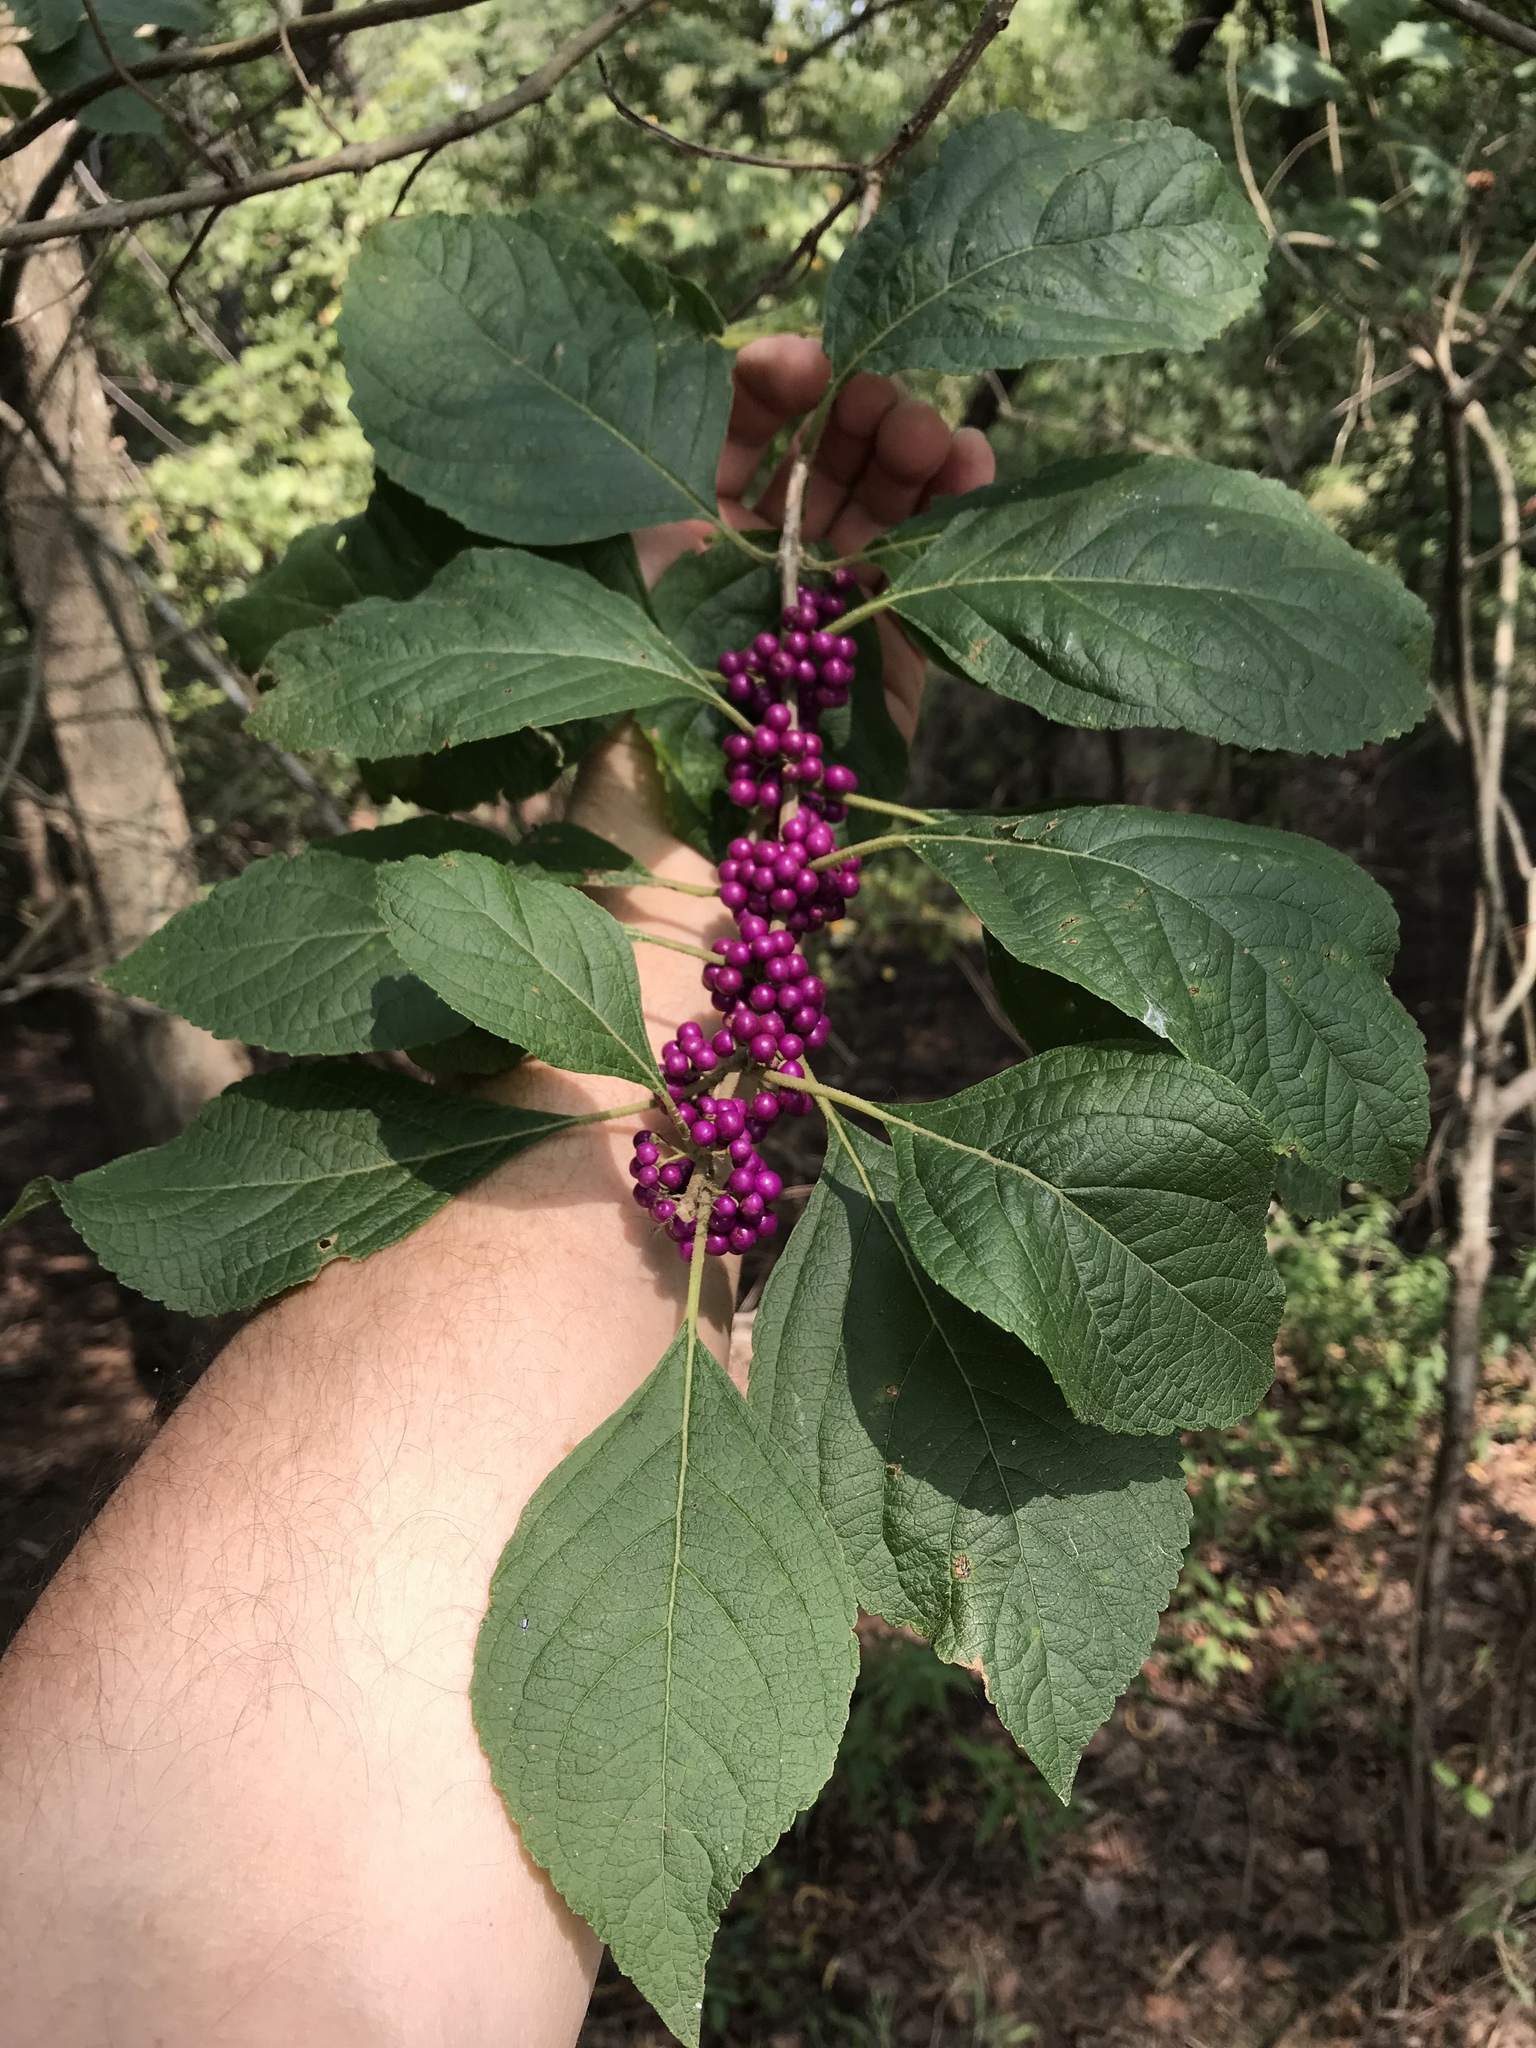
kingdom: Plantae
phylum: Tracheophyta
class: Magnoliopsida
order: Lamiales
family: Lamiaceae
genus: Callicarpa
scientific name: Callicarpa americana
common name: American beautyberry
